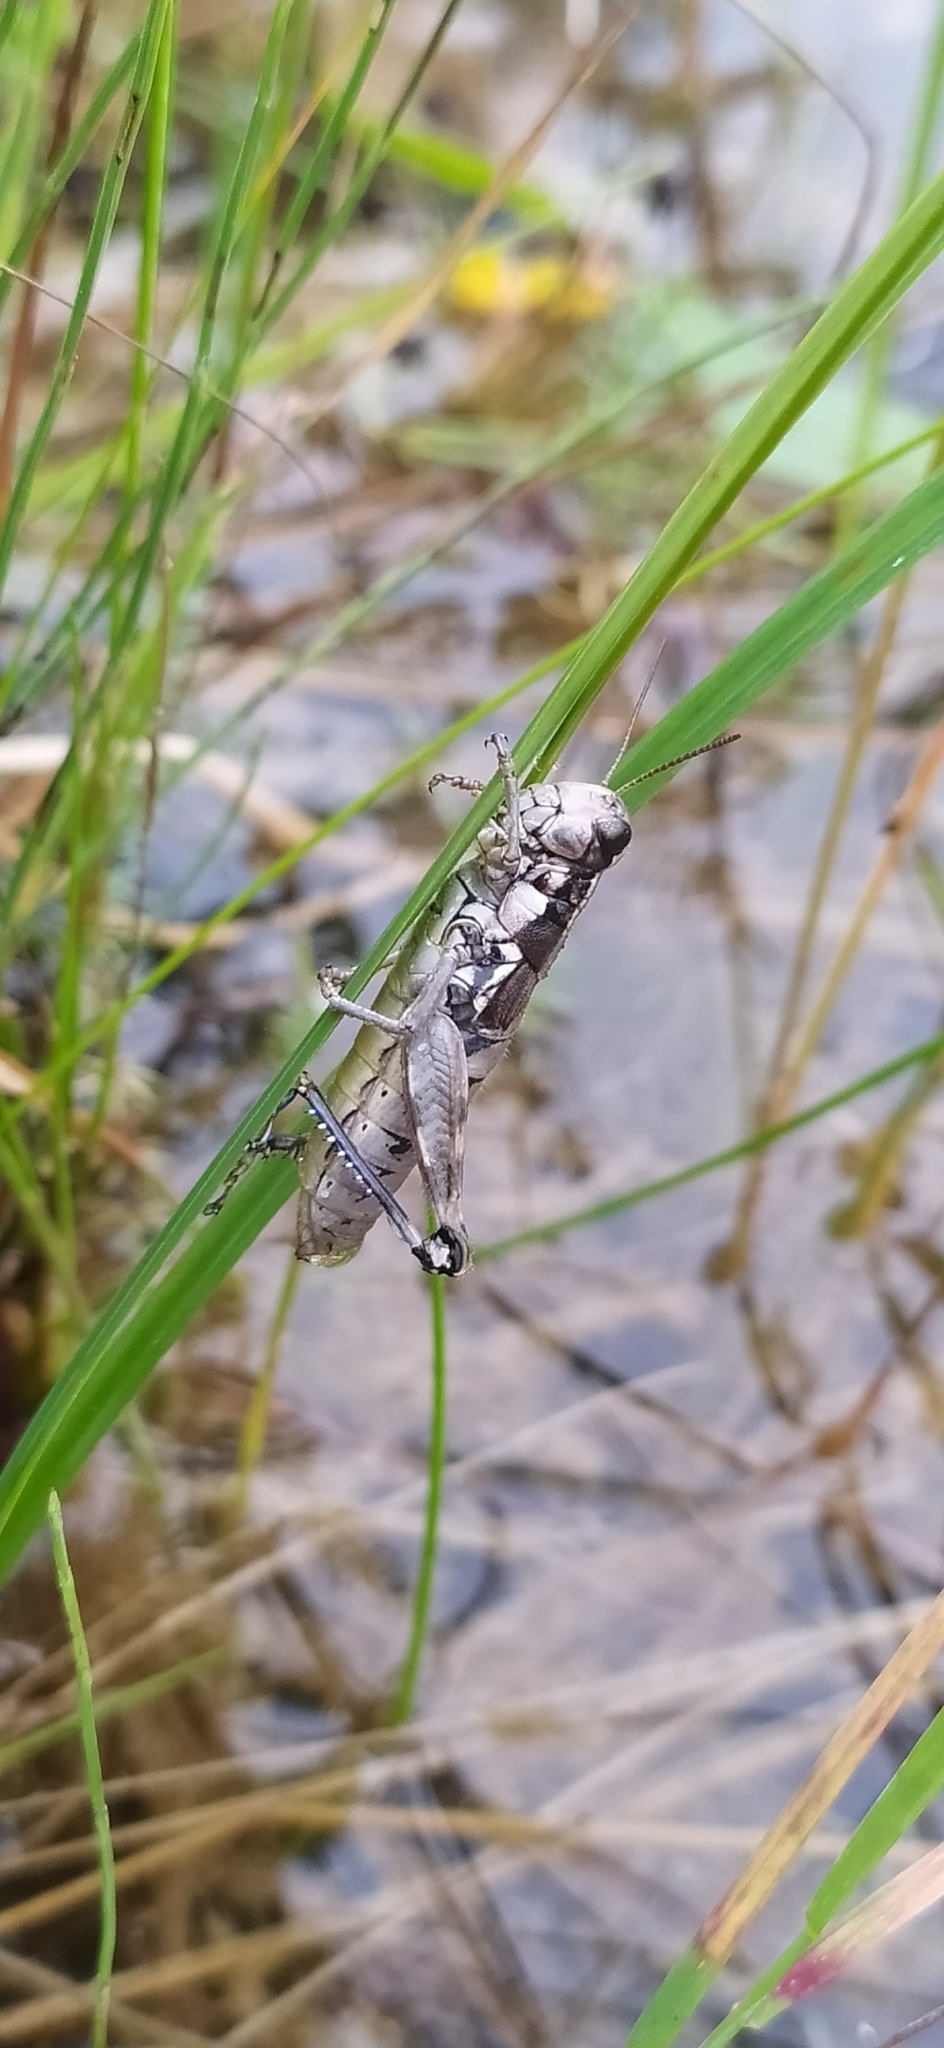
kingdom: Animalia
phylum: Arthropoda
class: Insecta
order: Orthoptera
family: Acrididae
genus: Podisma
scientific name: Podisma pedestris
